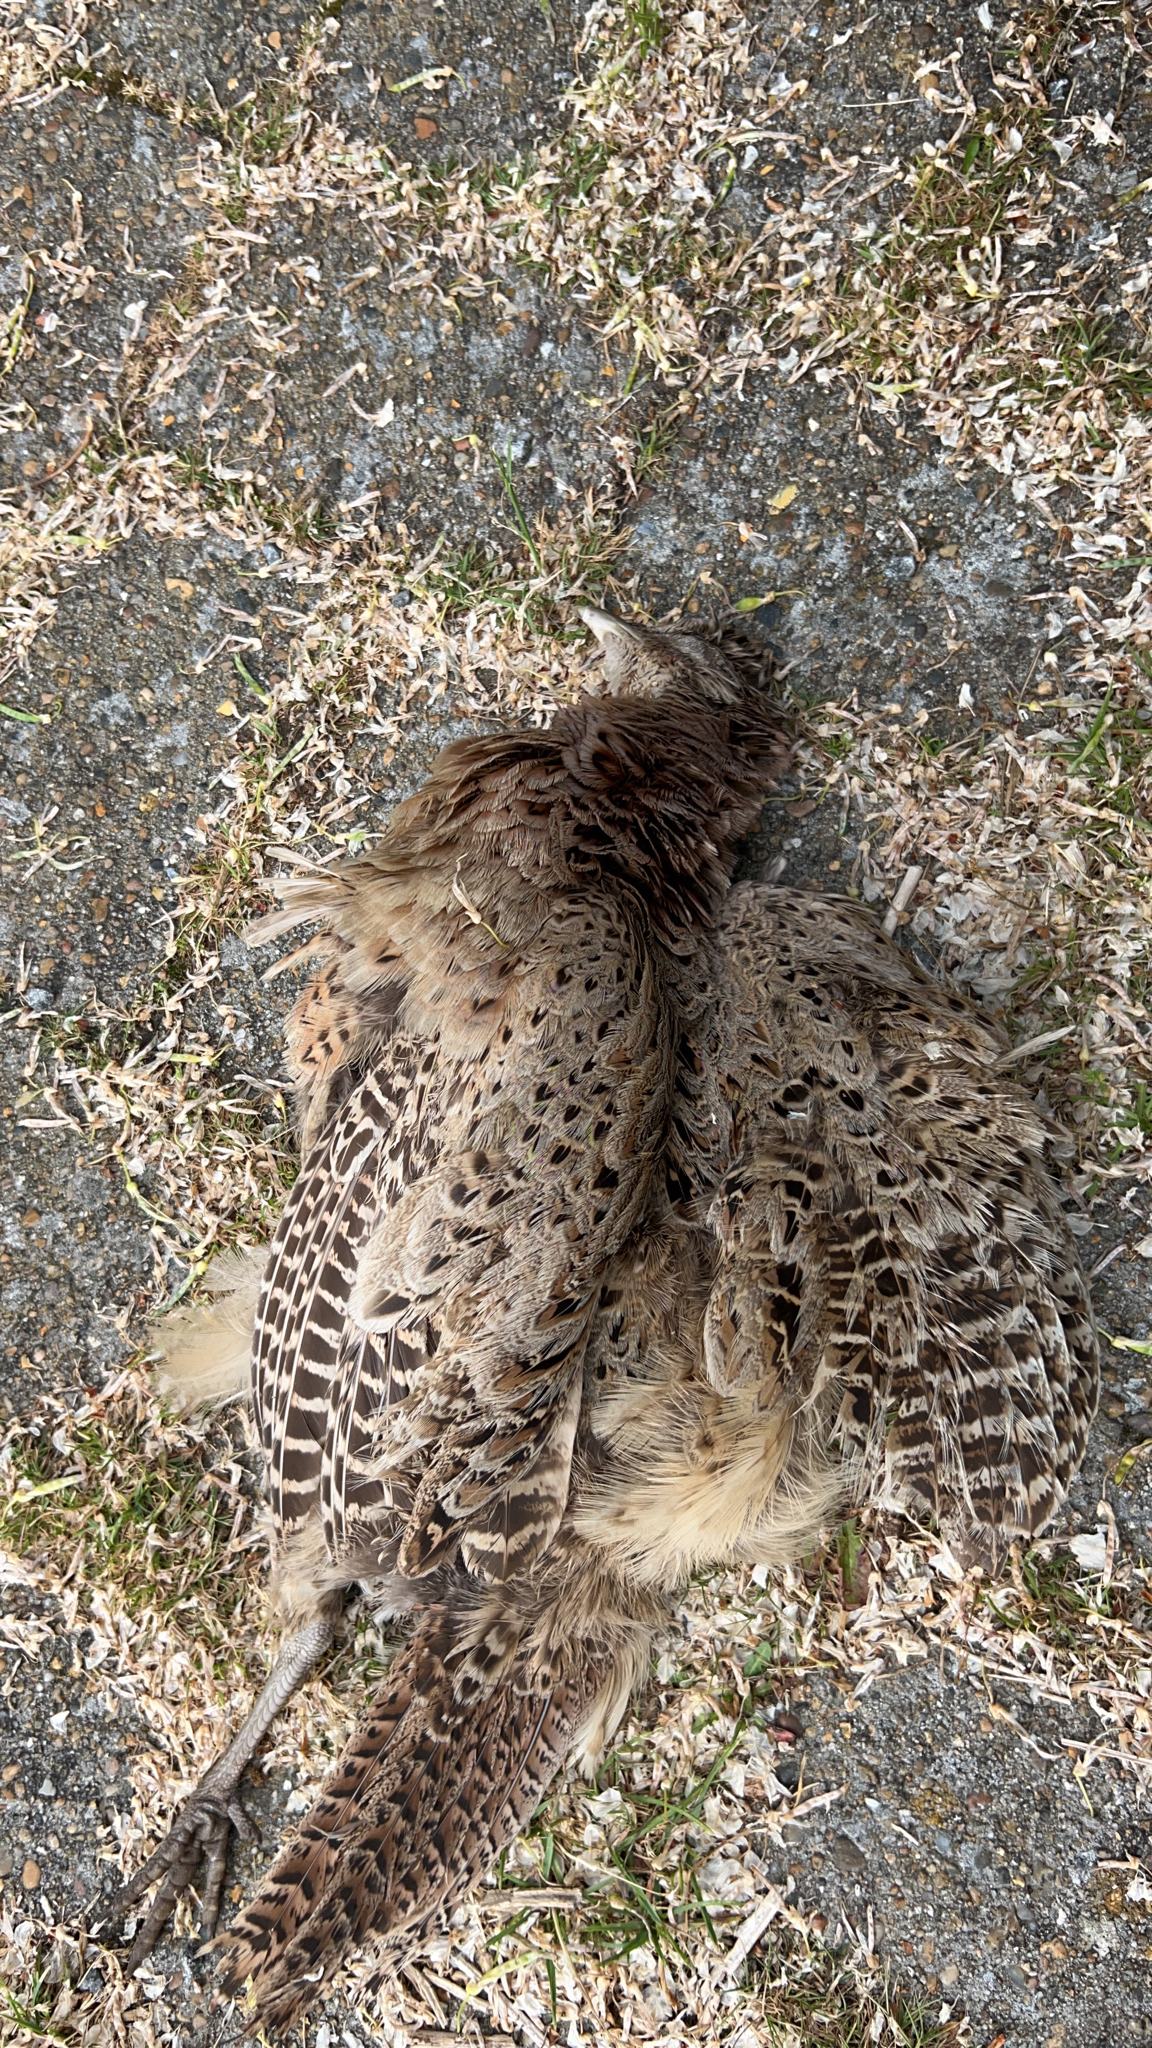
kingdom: Animalia
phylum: Chordata
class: Aves
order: Galliformes
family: Phasianidae
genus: Phasianus
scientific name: Phasianus colchicus
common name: Common pheasant
